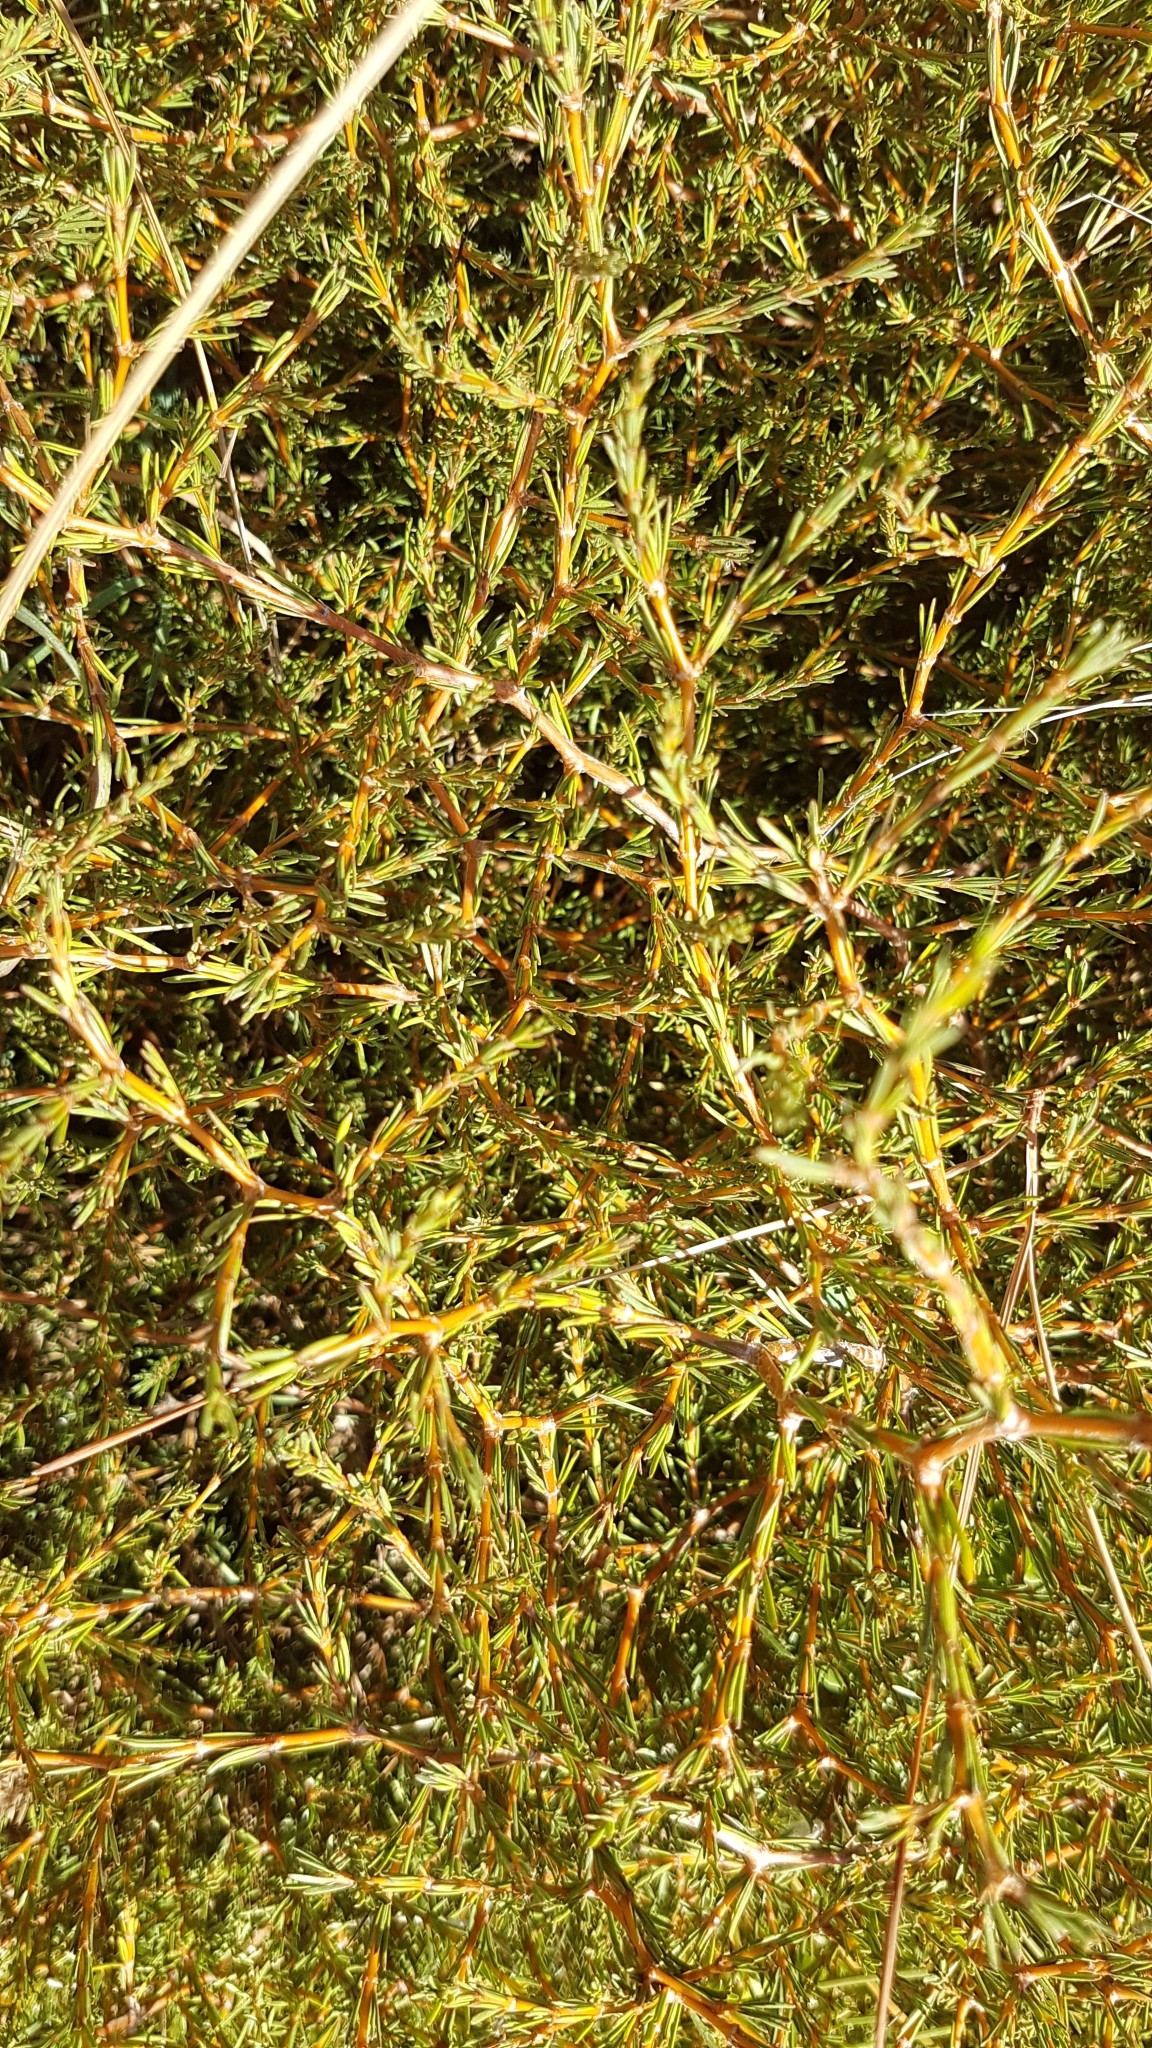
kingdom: Plantae
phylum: Tracheophyta
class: Magnoliopsida
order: Gentianales
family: Rubiaceae
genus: Coprosma
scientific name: Coprosma acerosa
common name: Sand coprosma
